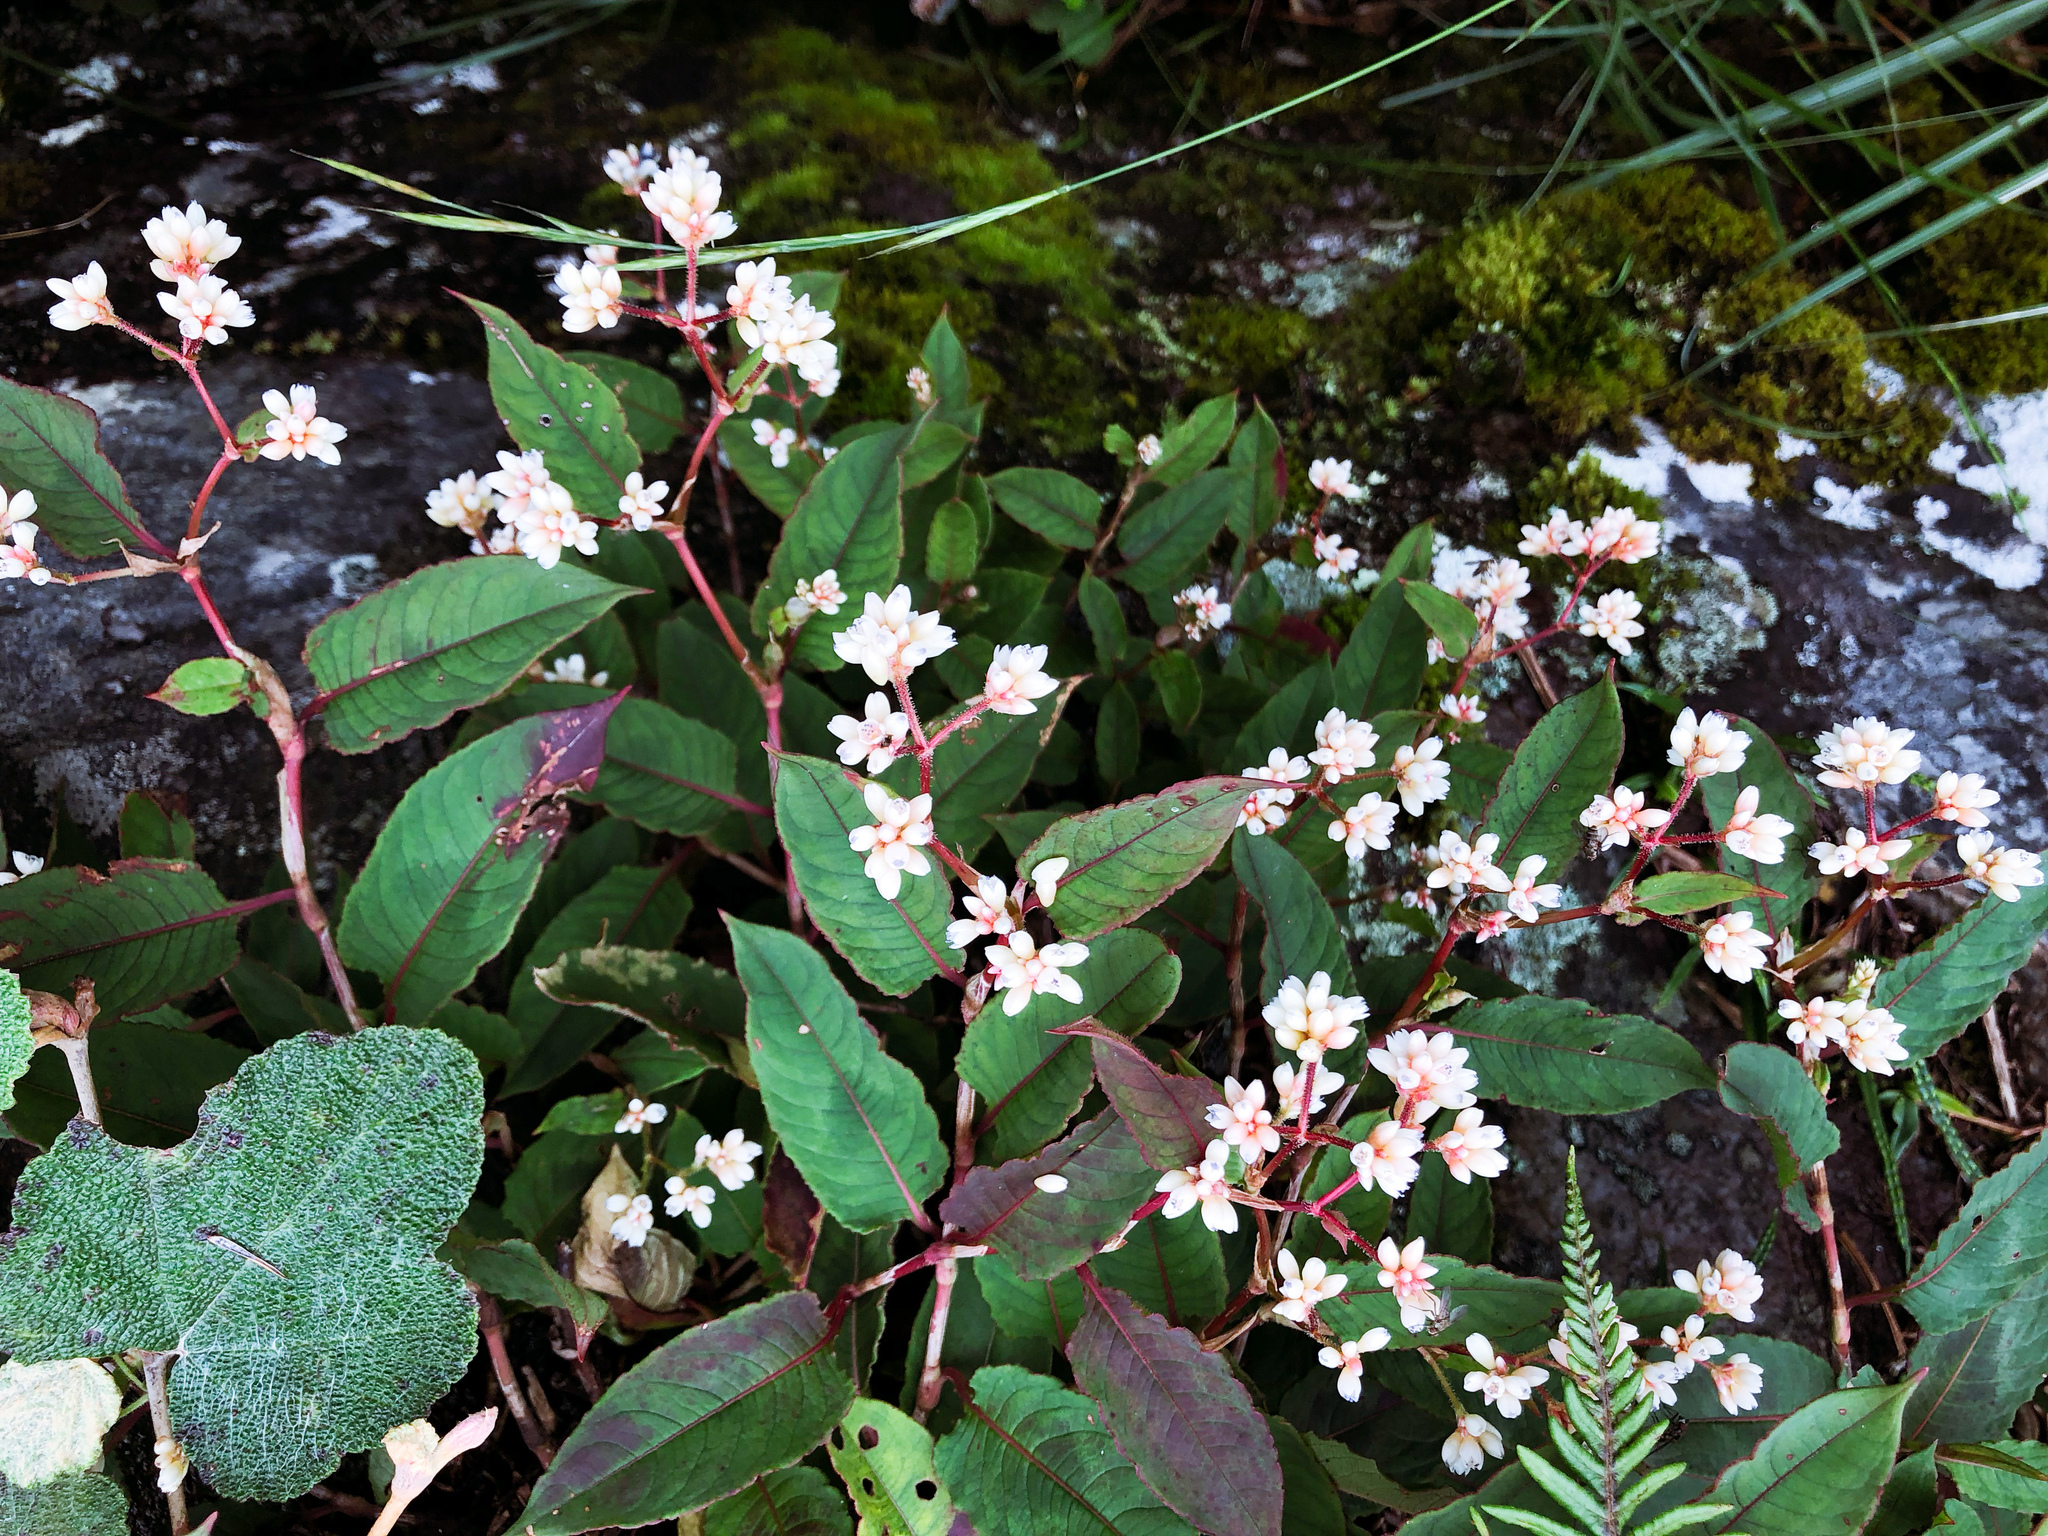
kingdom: Plantae
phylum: Tracheophyta
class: Magnoliopsida
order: Caryophyllales
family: Polygonaceae
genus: Persicaria
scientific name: Persicaria chinensis
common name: Chinese knotweed
